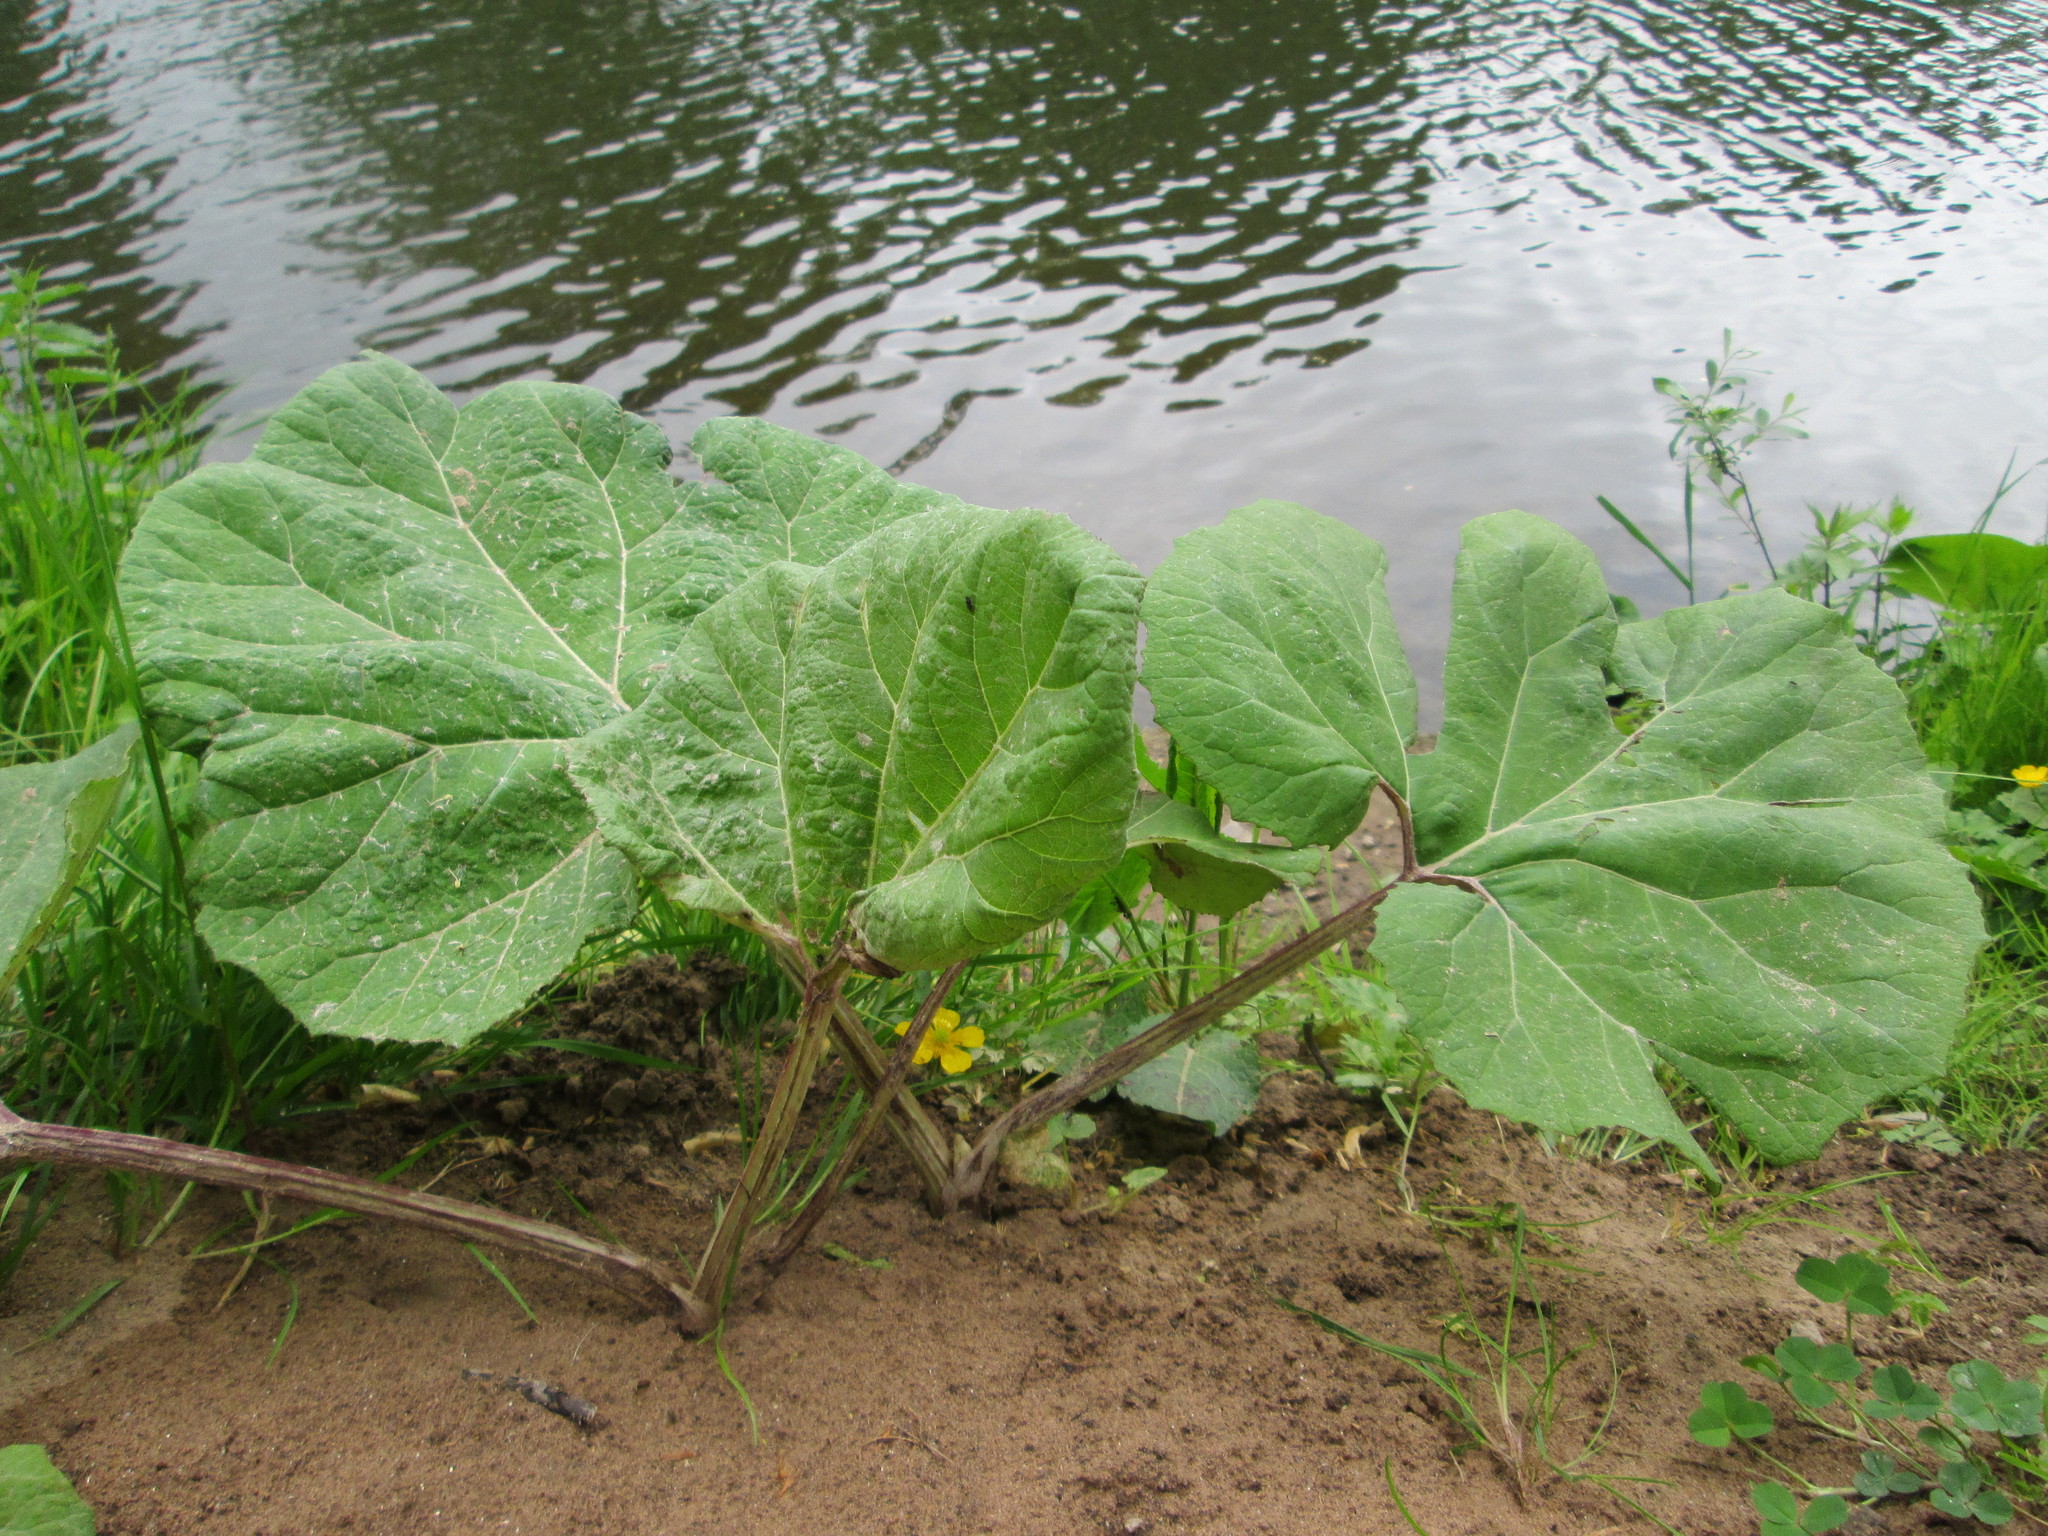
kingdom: Plantae
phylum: Tracheophyta
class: Magnoliopsida
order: Asterales
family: Asteraceae
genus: Petasites
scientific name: Petasites hybridus
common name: Butterbur
